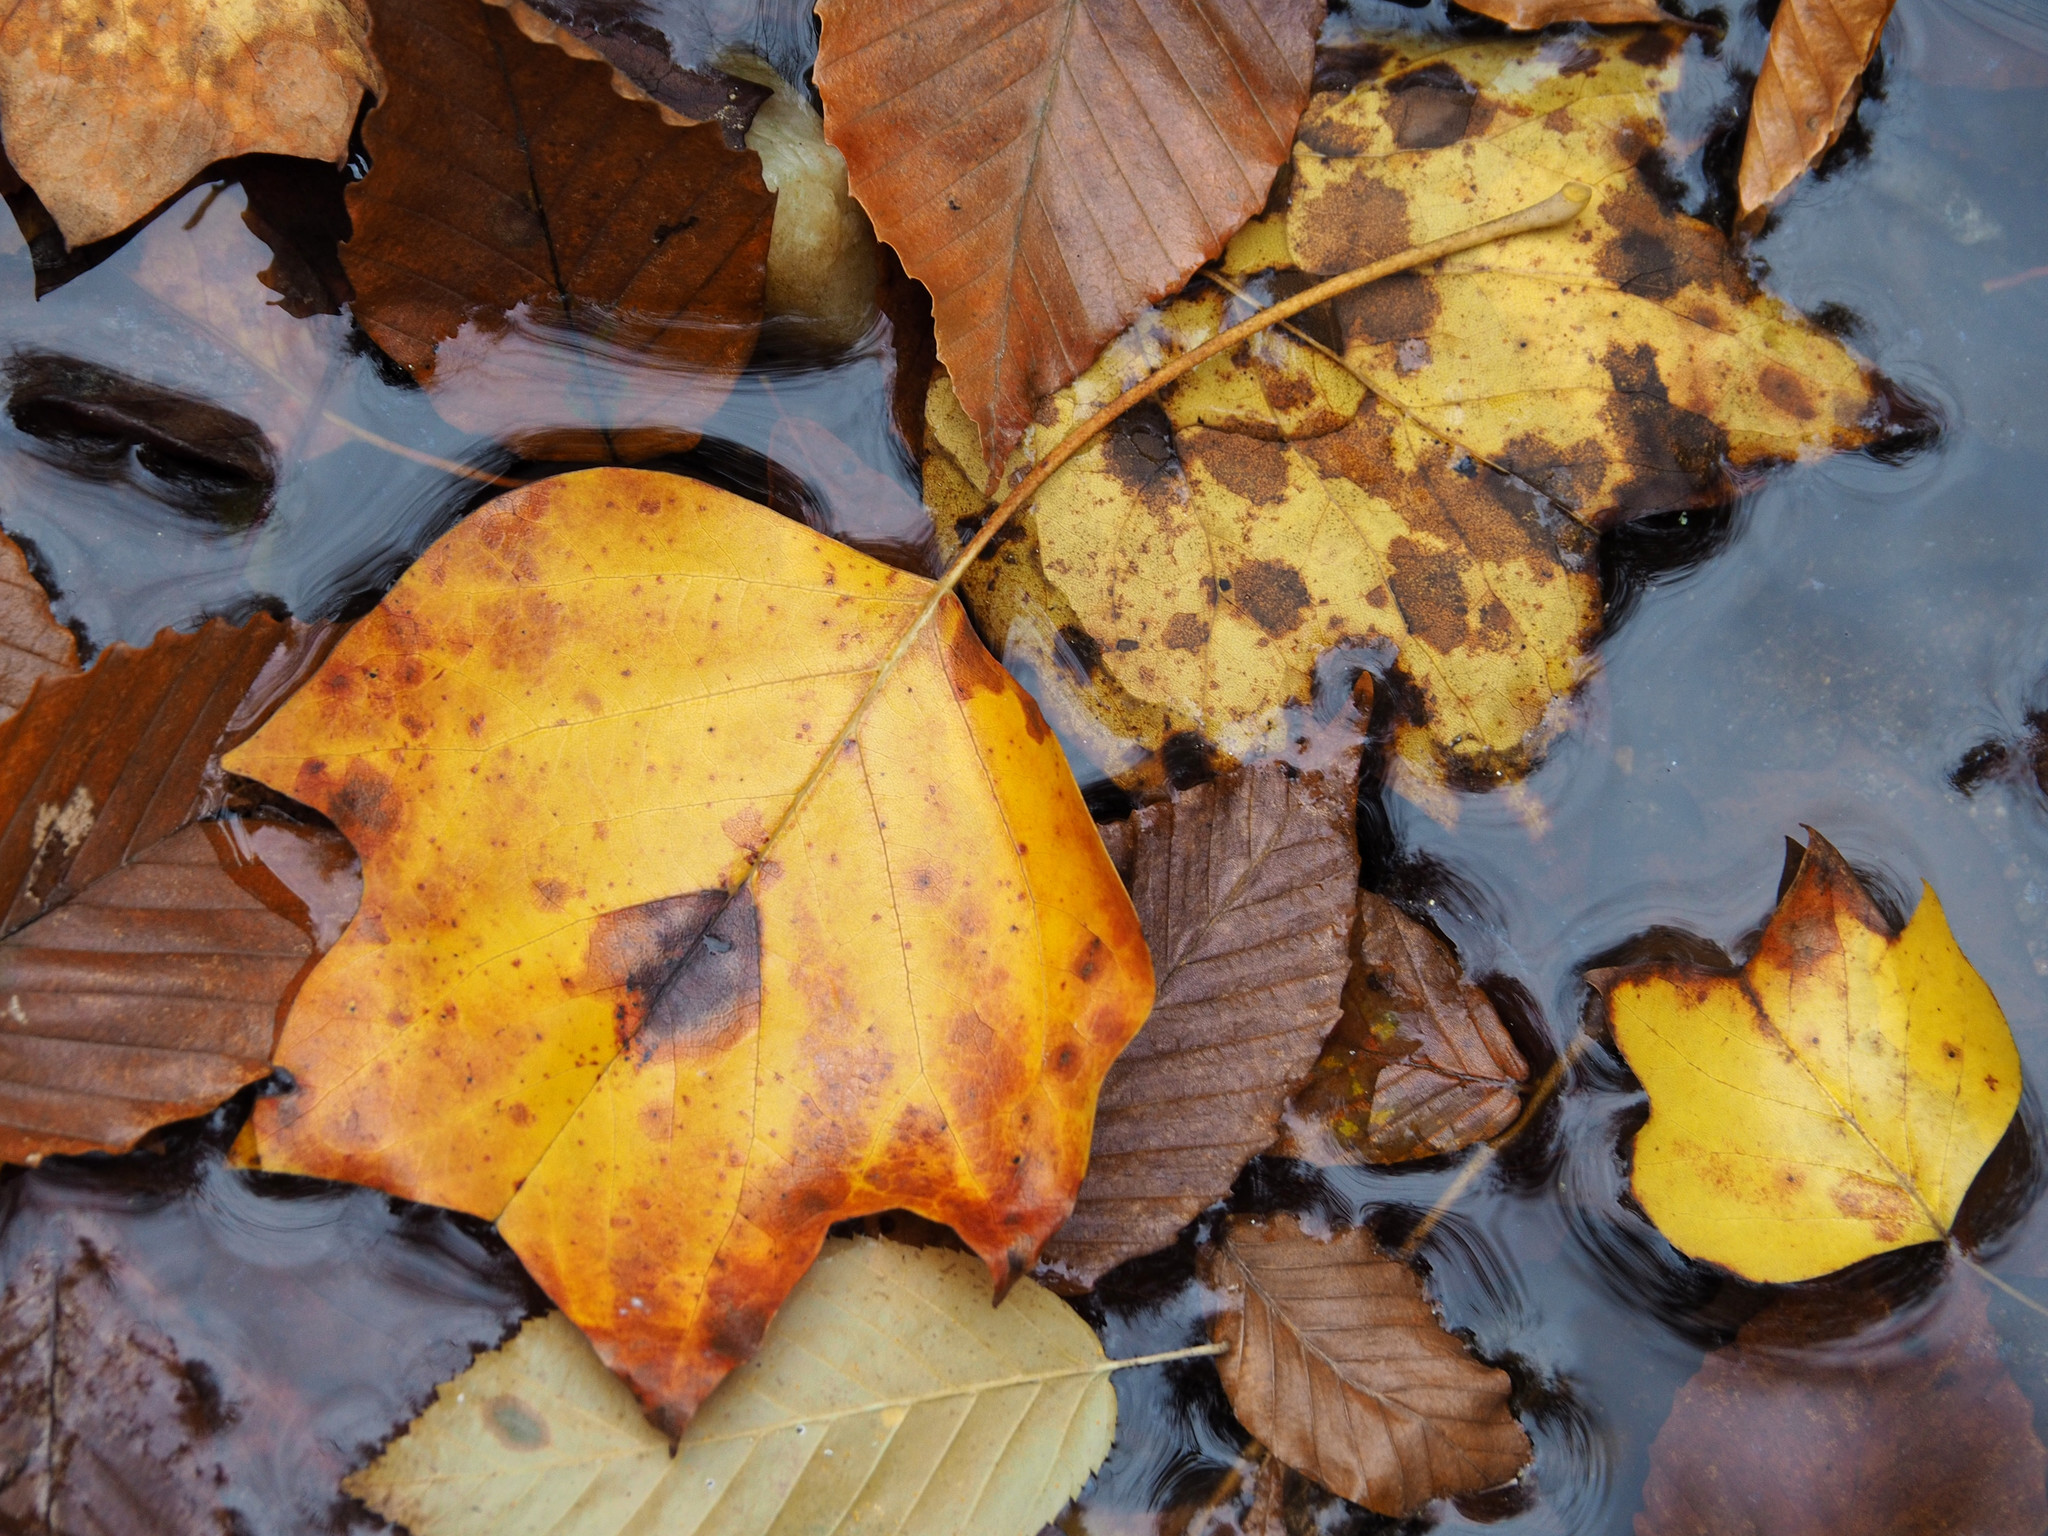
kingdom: Plantae
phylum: Tracheophyta
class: Magnoliopsida
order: Magnoliales
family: Magnoliaceae
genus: Liriodendron
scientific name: Liriodendron tulipifera
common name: Tulip tree
